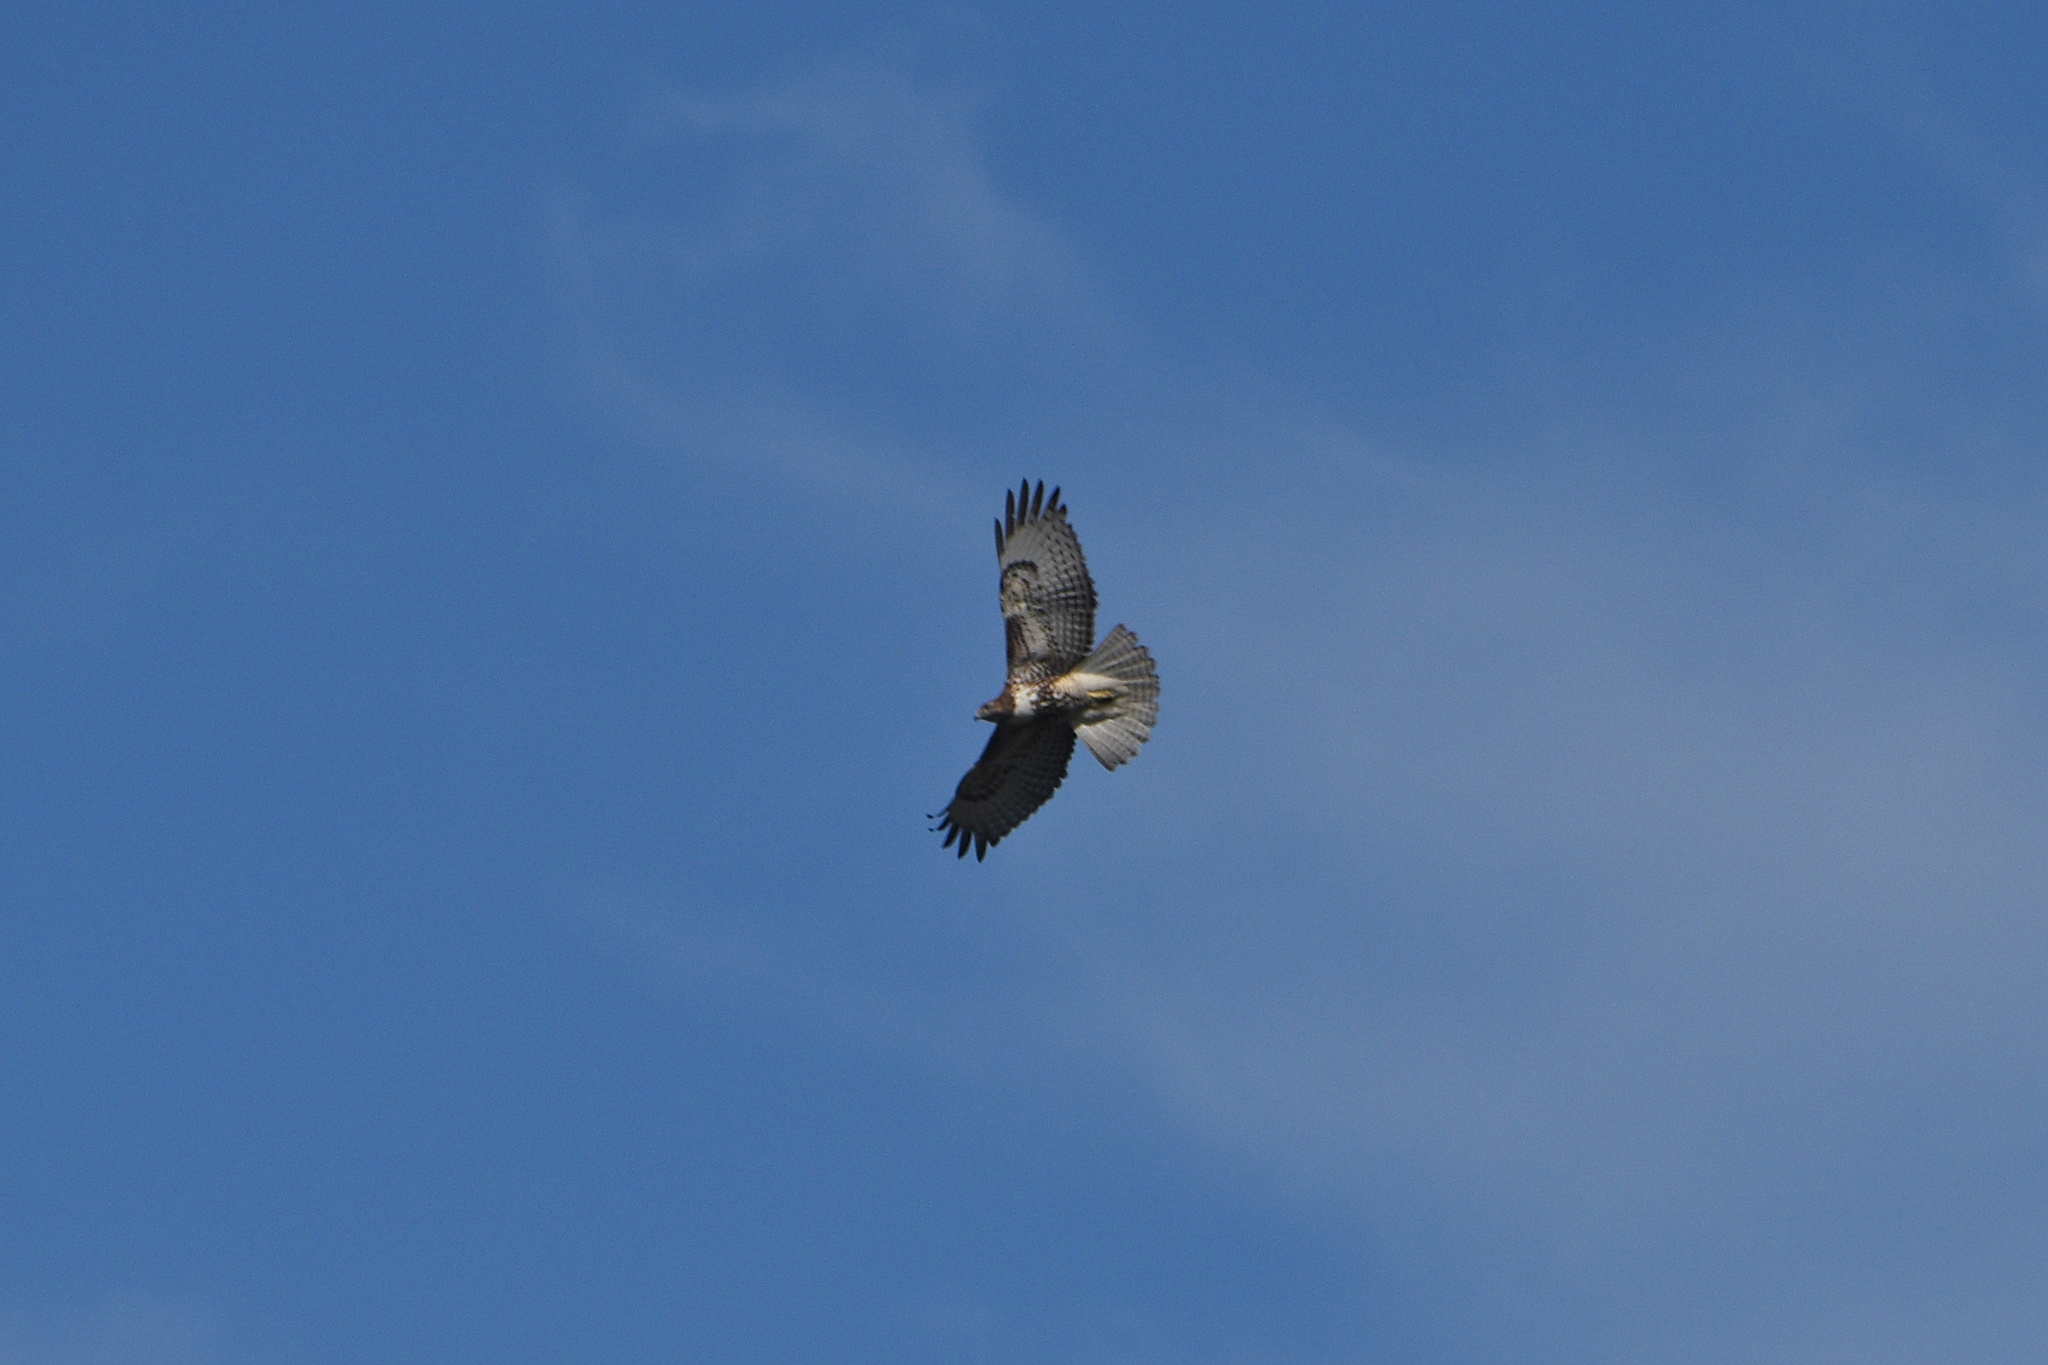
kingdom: Animalia
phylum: Chordata
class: Aves
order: Accipitriformes
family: Accipitridae
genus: Buteo
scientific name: Buteo jamaicensis
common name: Red-tailed hawk
